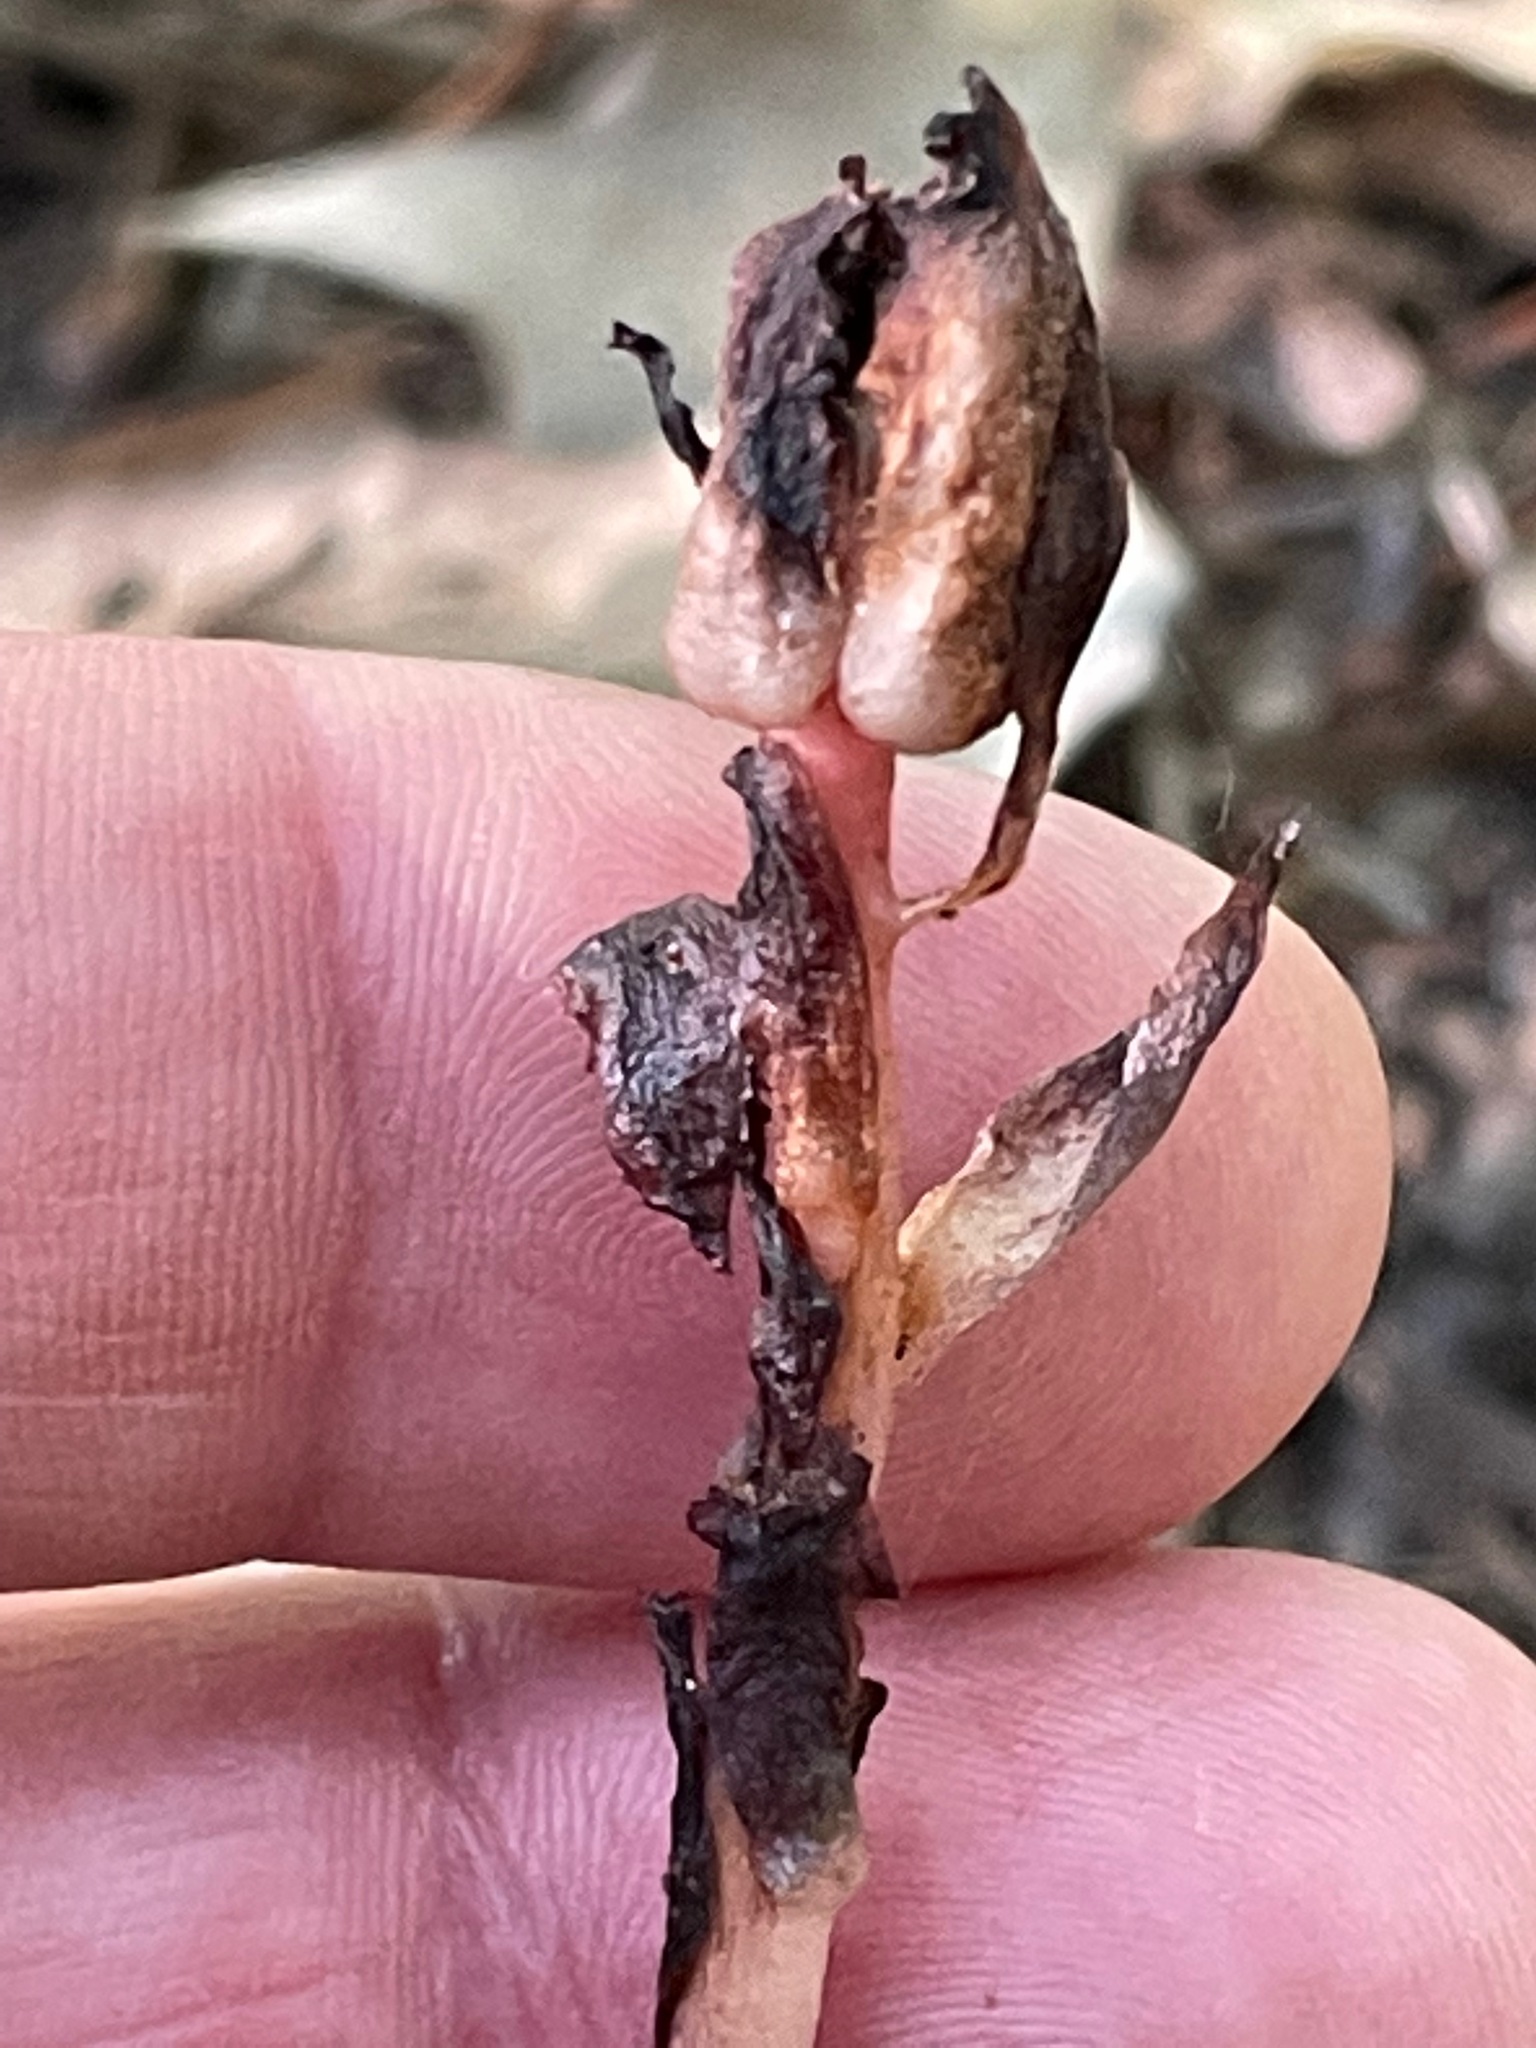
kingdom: Plantae
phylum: Tracheophyta
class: Magnoliopsida
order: Ericales
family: Ericaceae
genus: Monotropa
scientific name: Monotropa uniflora
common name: Convulsion root
